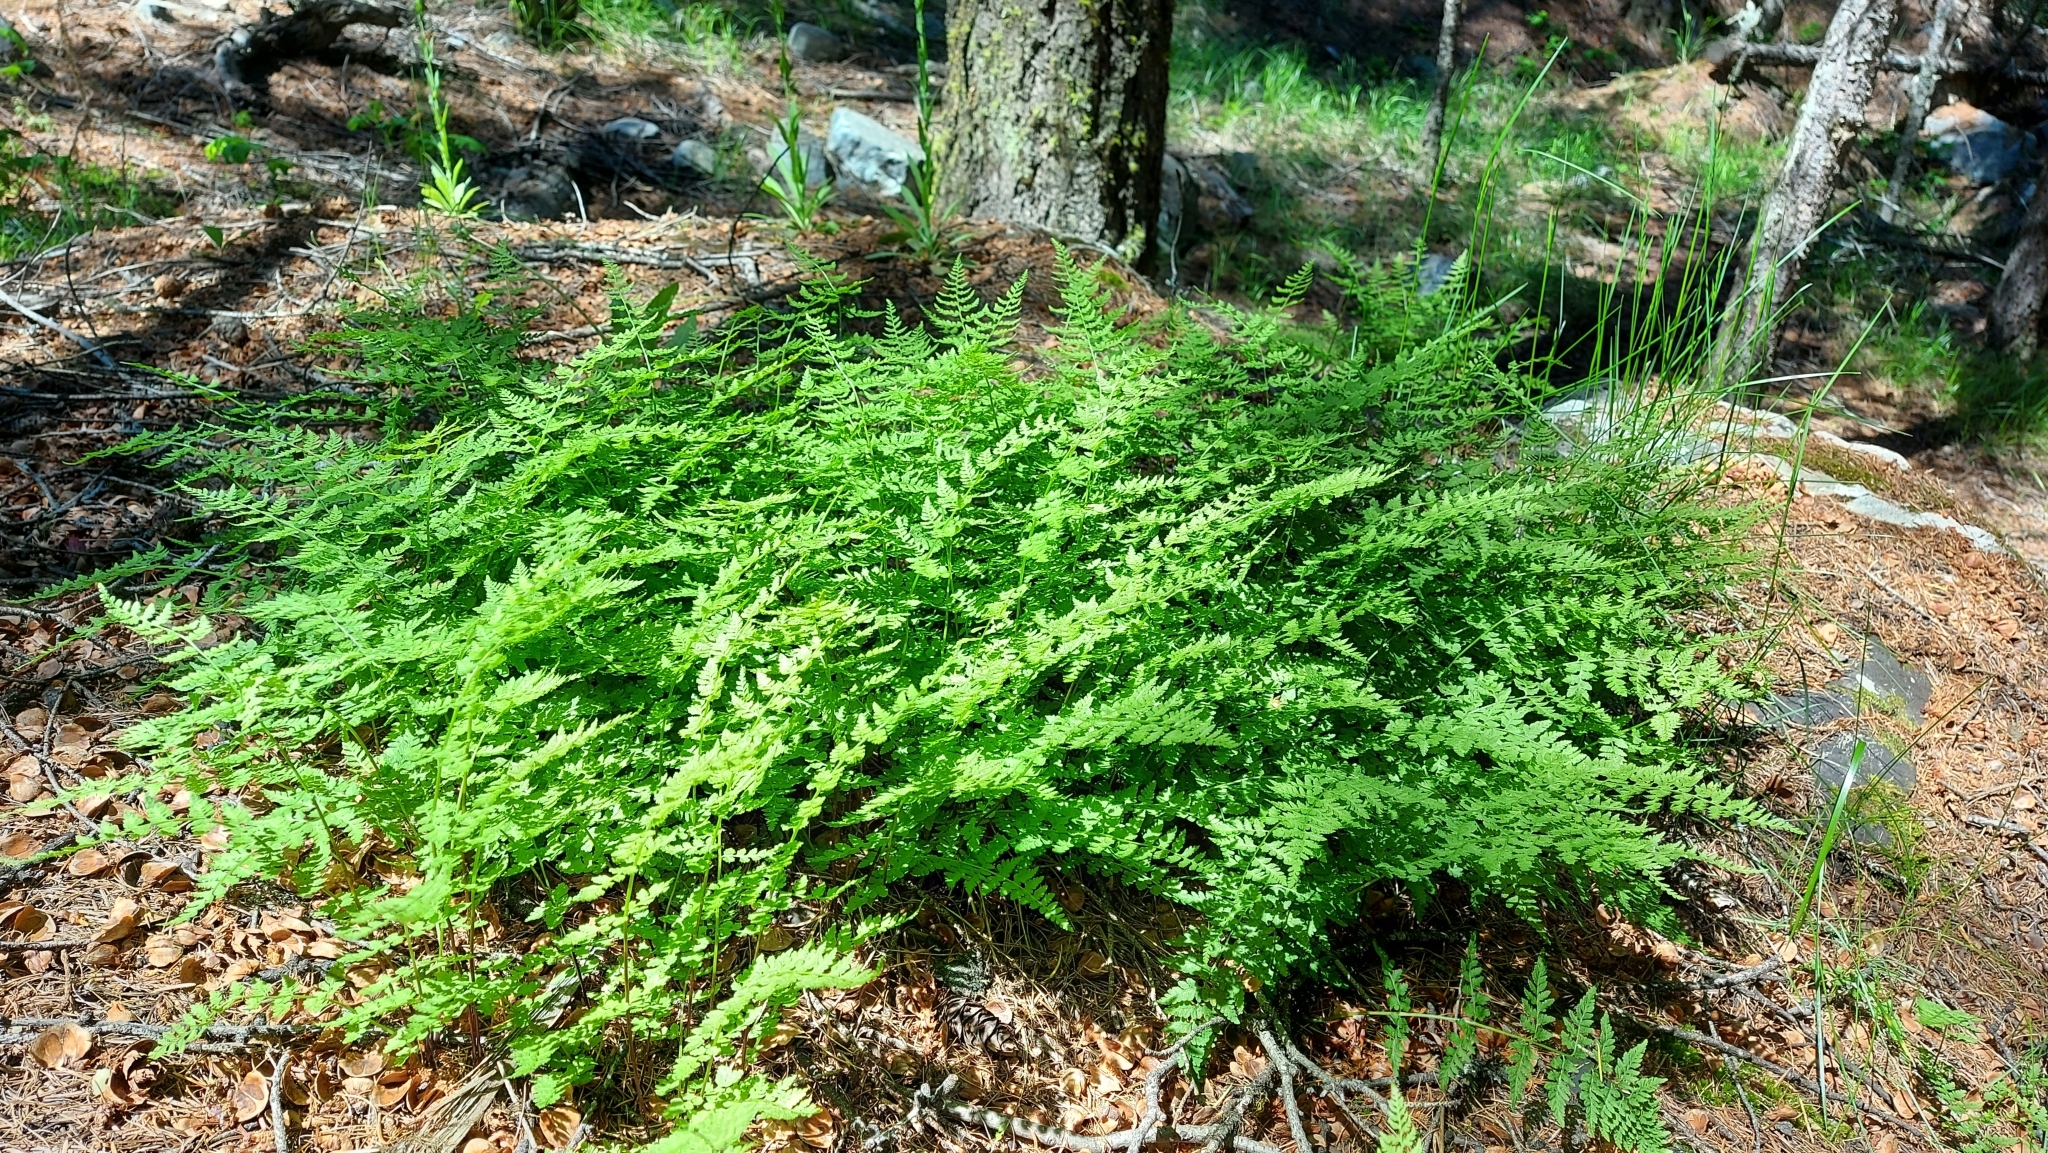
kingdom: Plantae
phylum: Tracheophyta
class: Polypodiopsida
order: Polypodiales
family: Cystopteridaceae
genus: Cystopteris
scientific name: Cystopteris fragilis
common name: Brittle bladder fern
